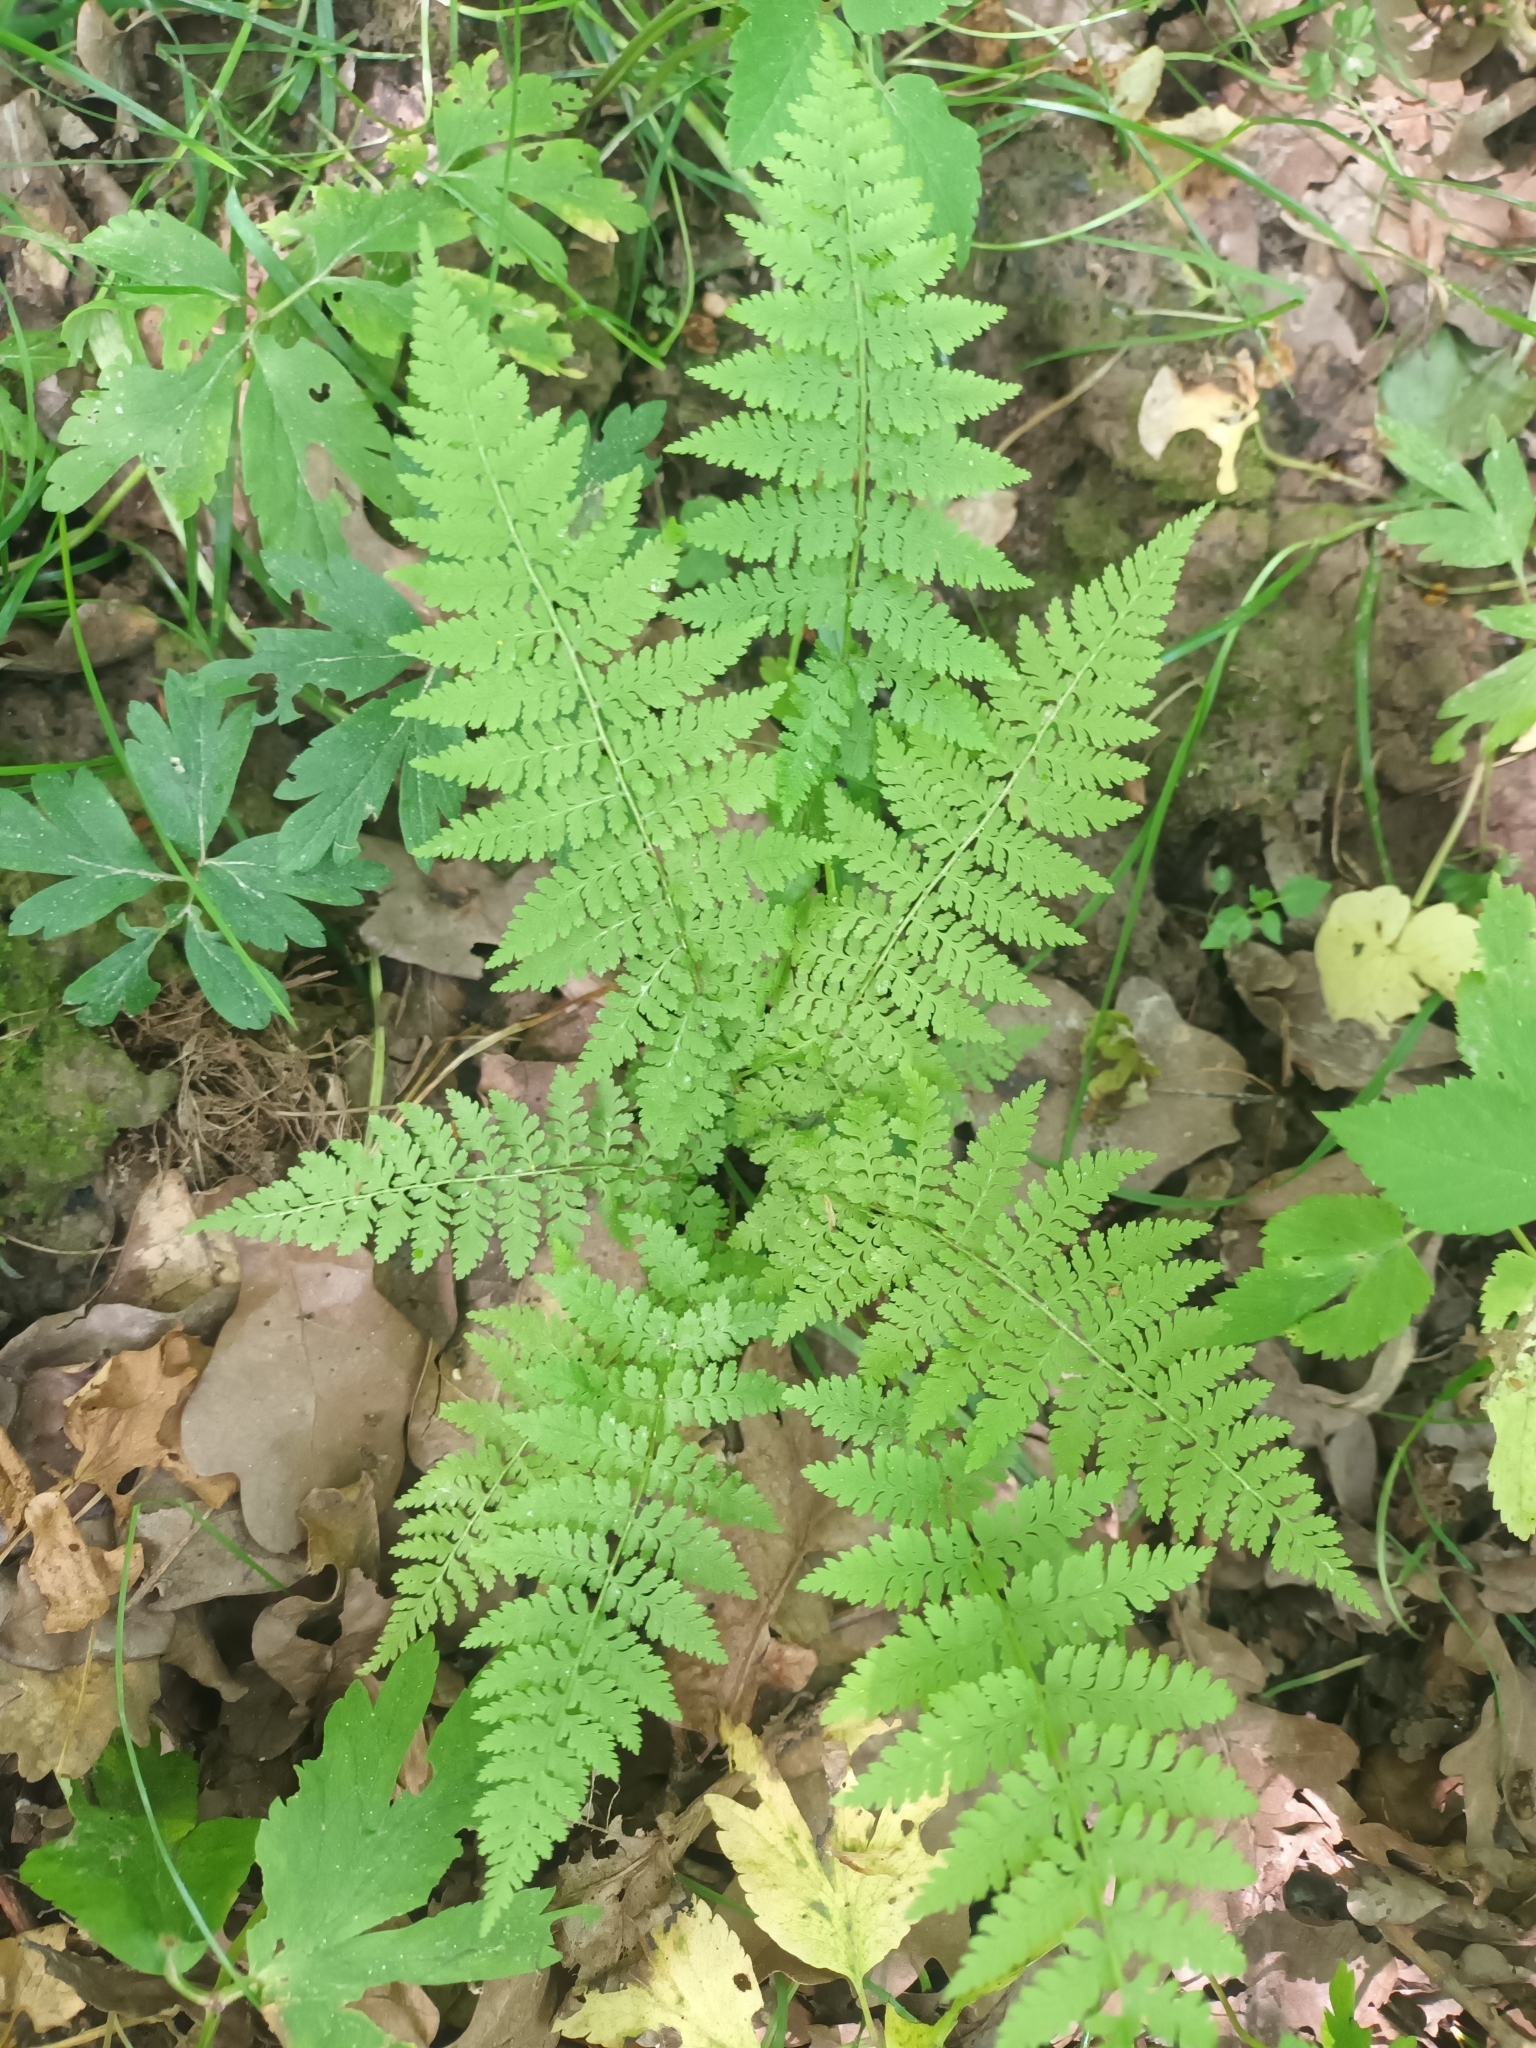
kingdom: Plantae
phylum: Tracheophyta
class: Polypodiopsida
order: Polypodiales
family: Athyriaceae
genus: Athyrium
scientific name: Athyrium filix-femina
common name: Lady fern
